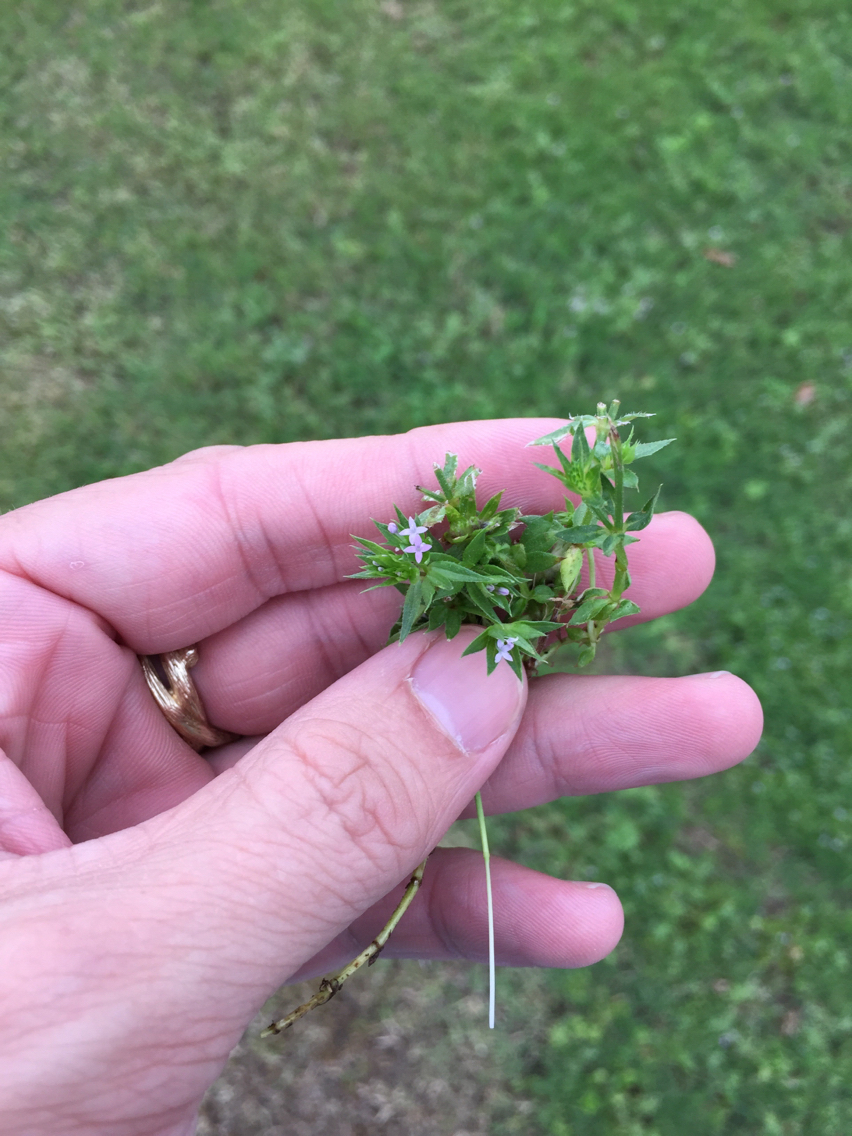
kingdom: Plantae
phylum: Tracheophyta
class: Magnoliopsida
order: Gentianales
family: Rubiaceae
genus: Sherardia
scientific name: Sherardia arvensis
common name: Field madder
